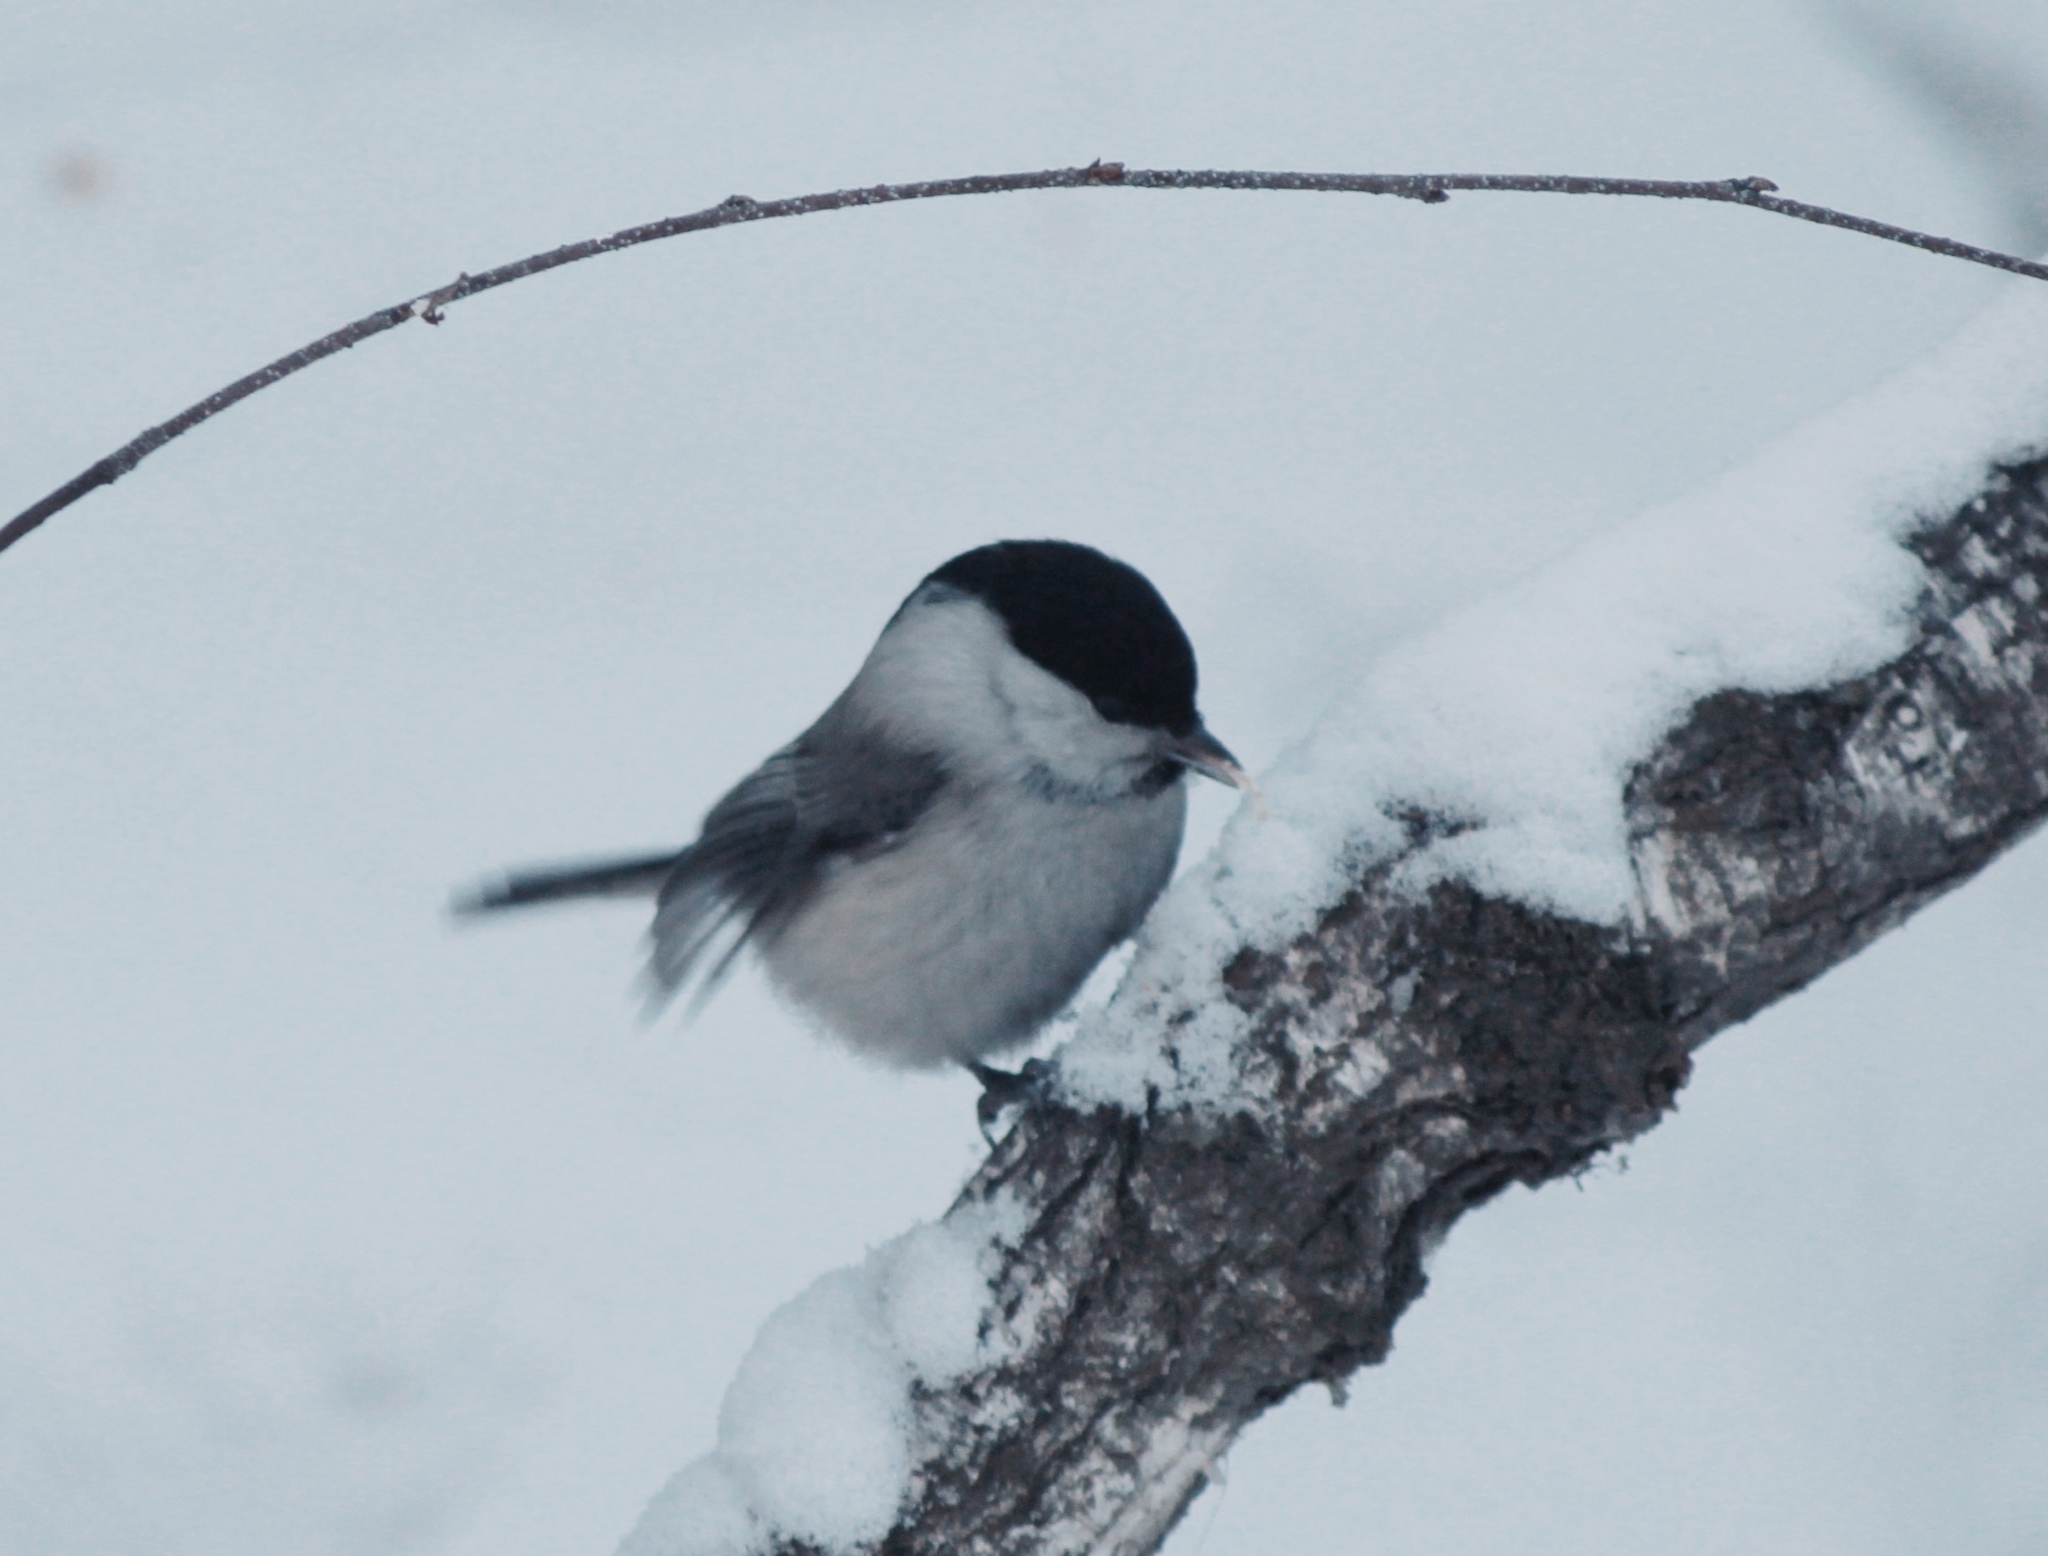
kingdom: Animalia
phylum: Chordata
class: Aves
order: Passeriformes
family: Paridae
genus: Poecile
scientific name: Poecile montanus
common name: Willow tit
